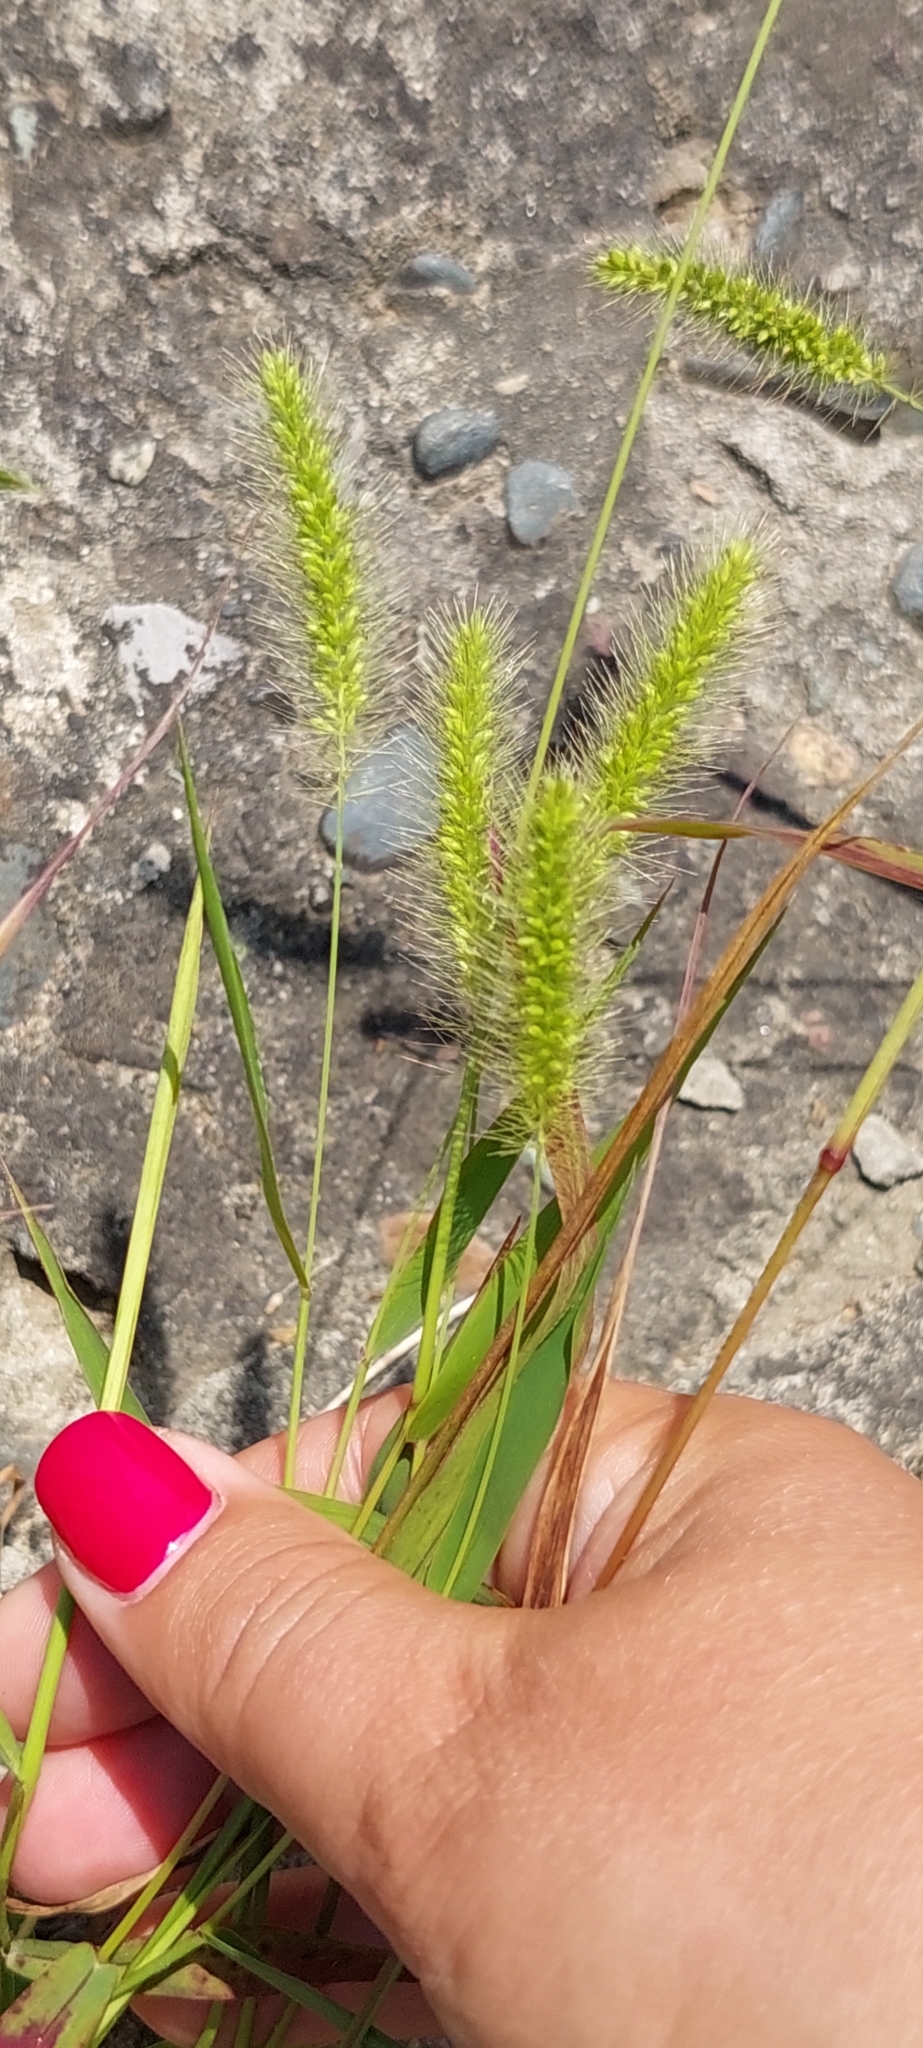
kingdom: Plantae
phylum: Tracheophyta
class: Liliopsida
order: Poales
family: Poaceae
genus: Setaria
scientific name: Setaria viridis
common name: Green bristlegrass
